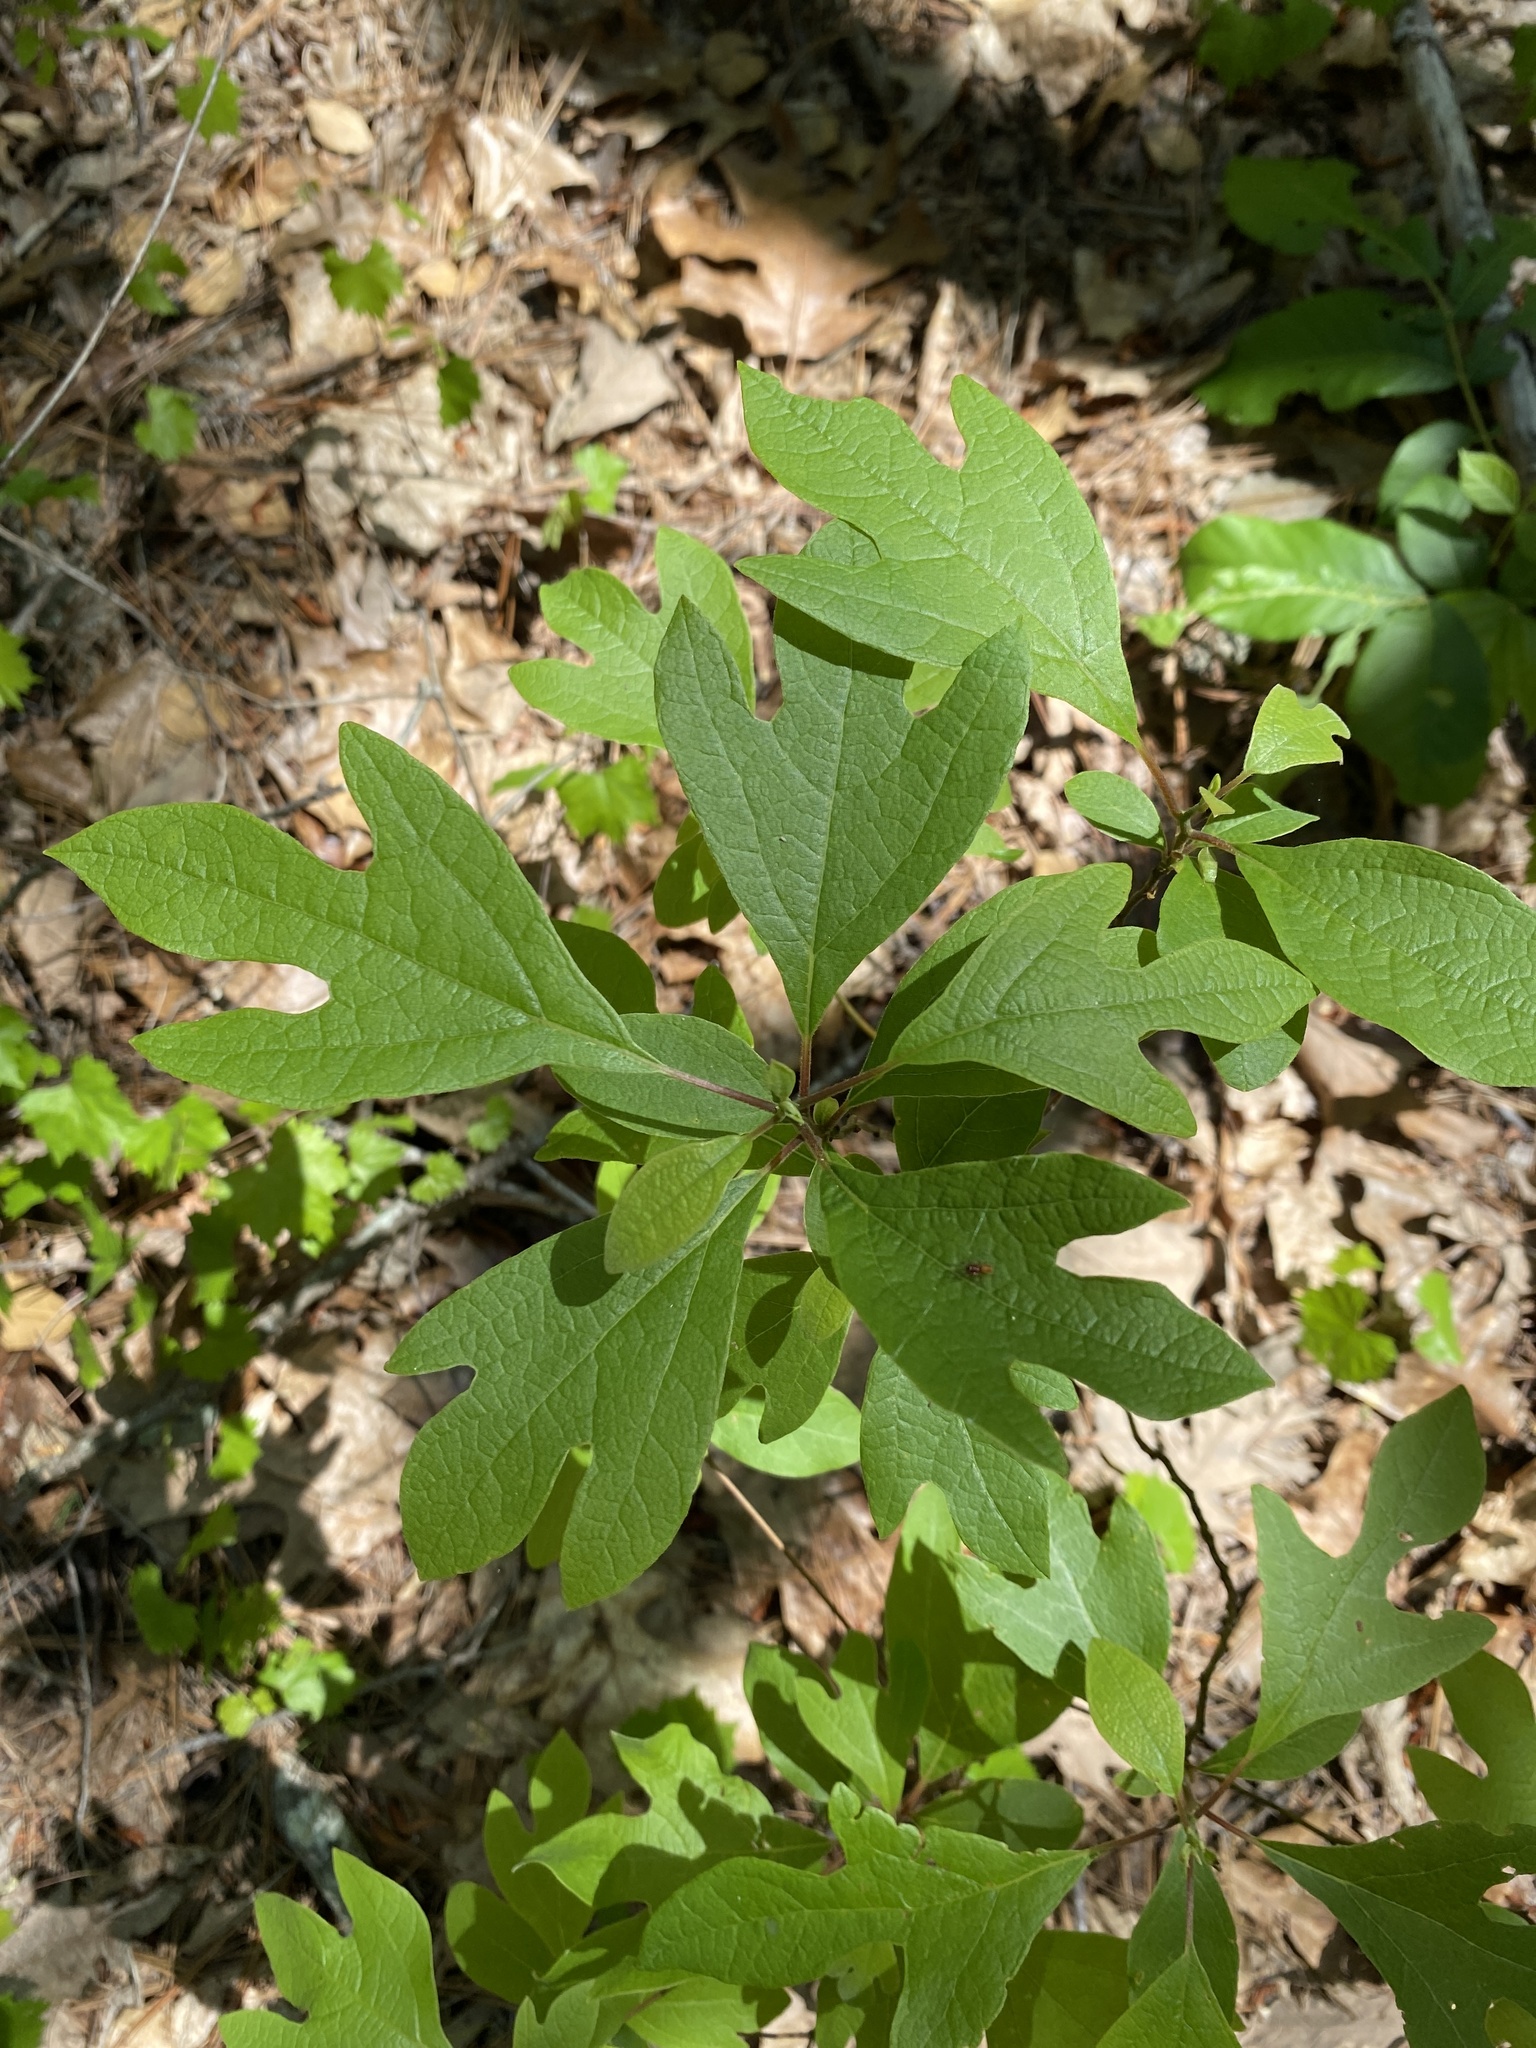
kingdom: Plantae
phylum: Tracheophyta
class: Magnoliopsida
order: Laurales
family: Lauraceae
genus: Sassafras
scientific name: Sassafras albidum
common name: Sassafras
